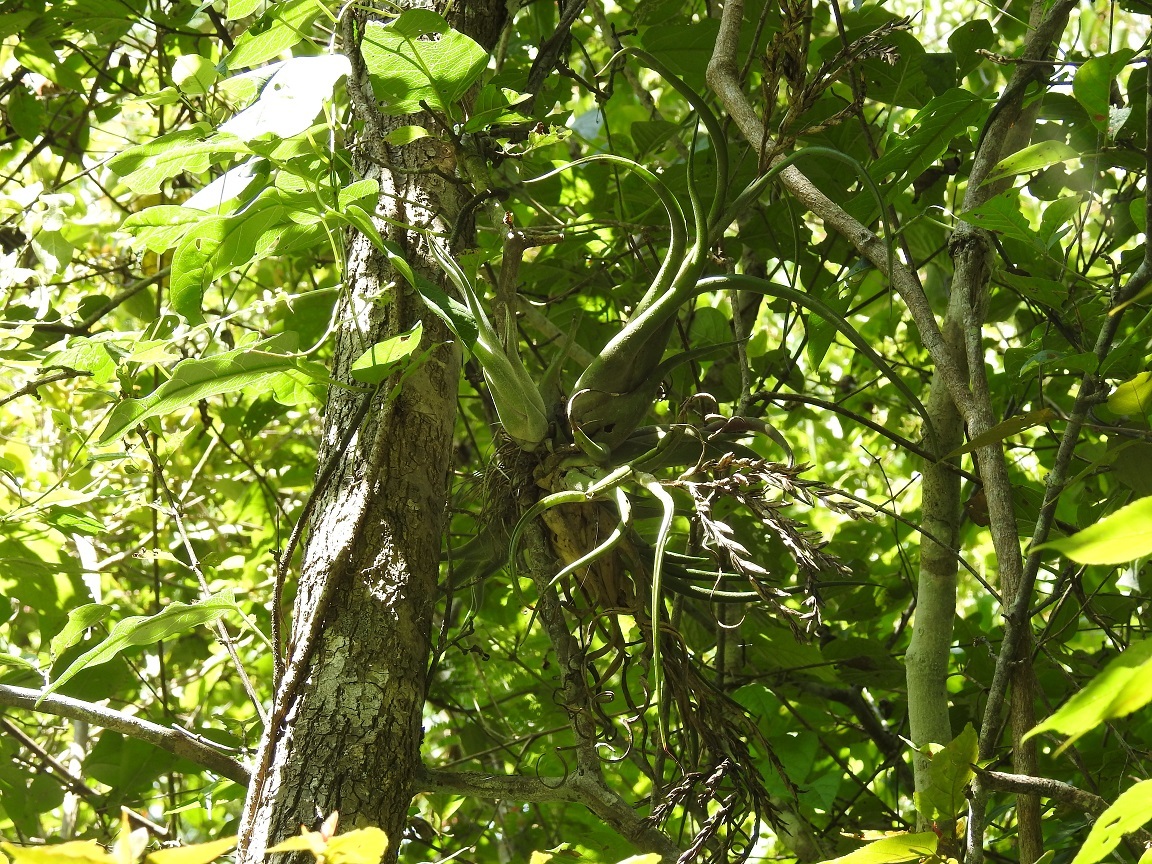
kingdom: Plantae
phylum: Tracheophyta
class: Liliopsida
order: Poales
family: Bromeliaceae
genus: Tillandsia
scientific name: Tillandsia caput-medusae
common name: Octopus plant
